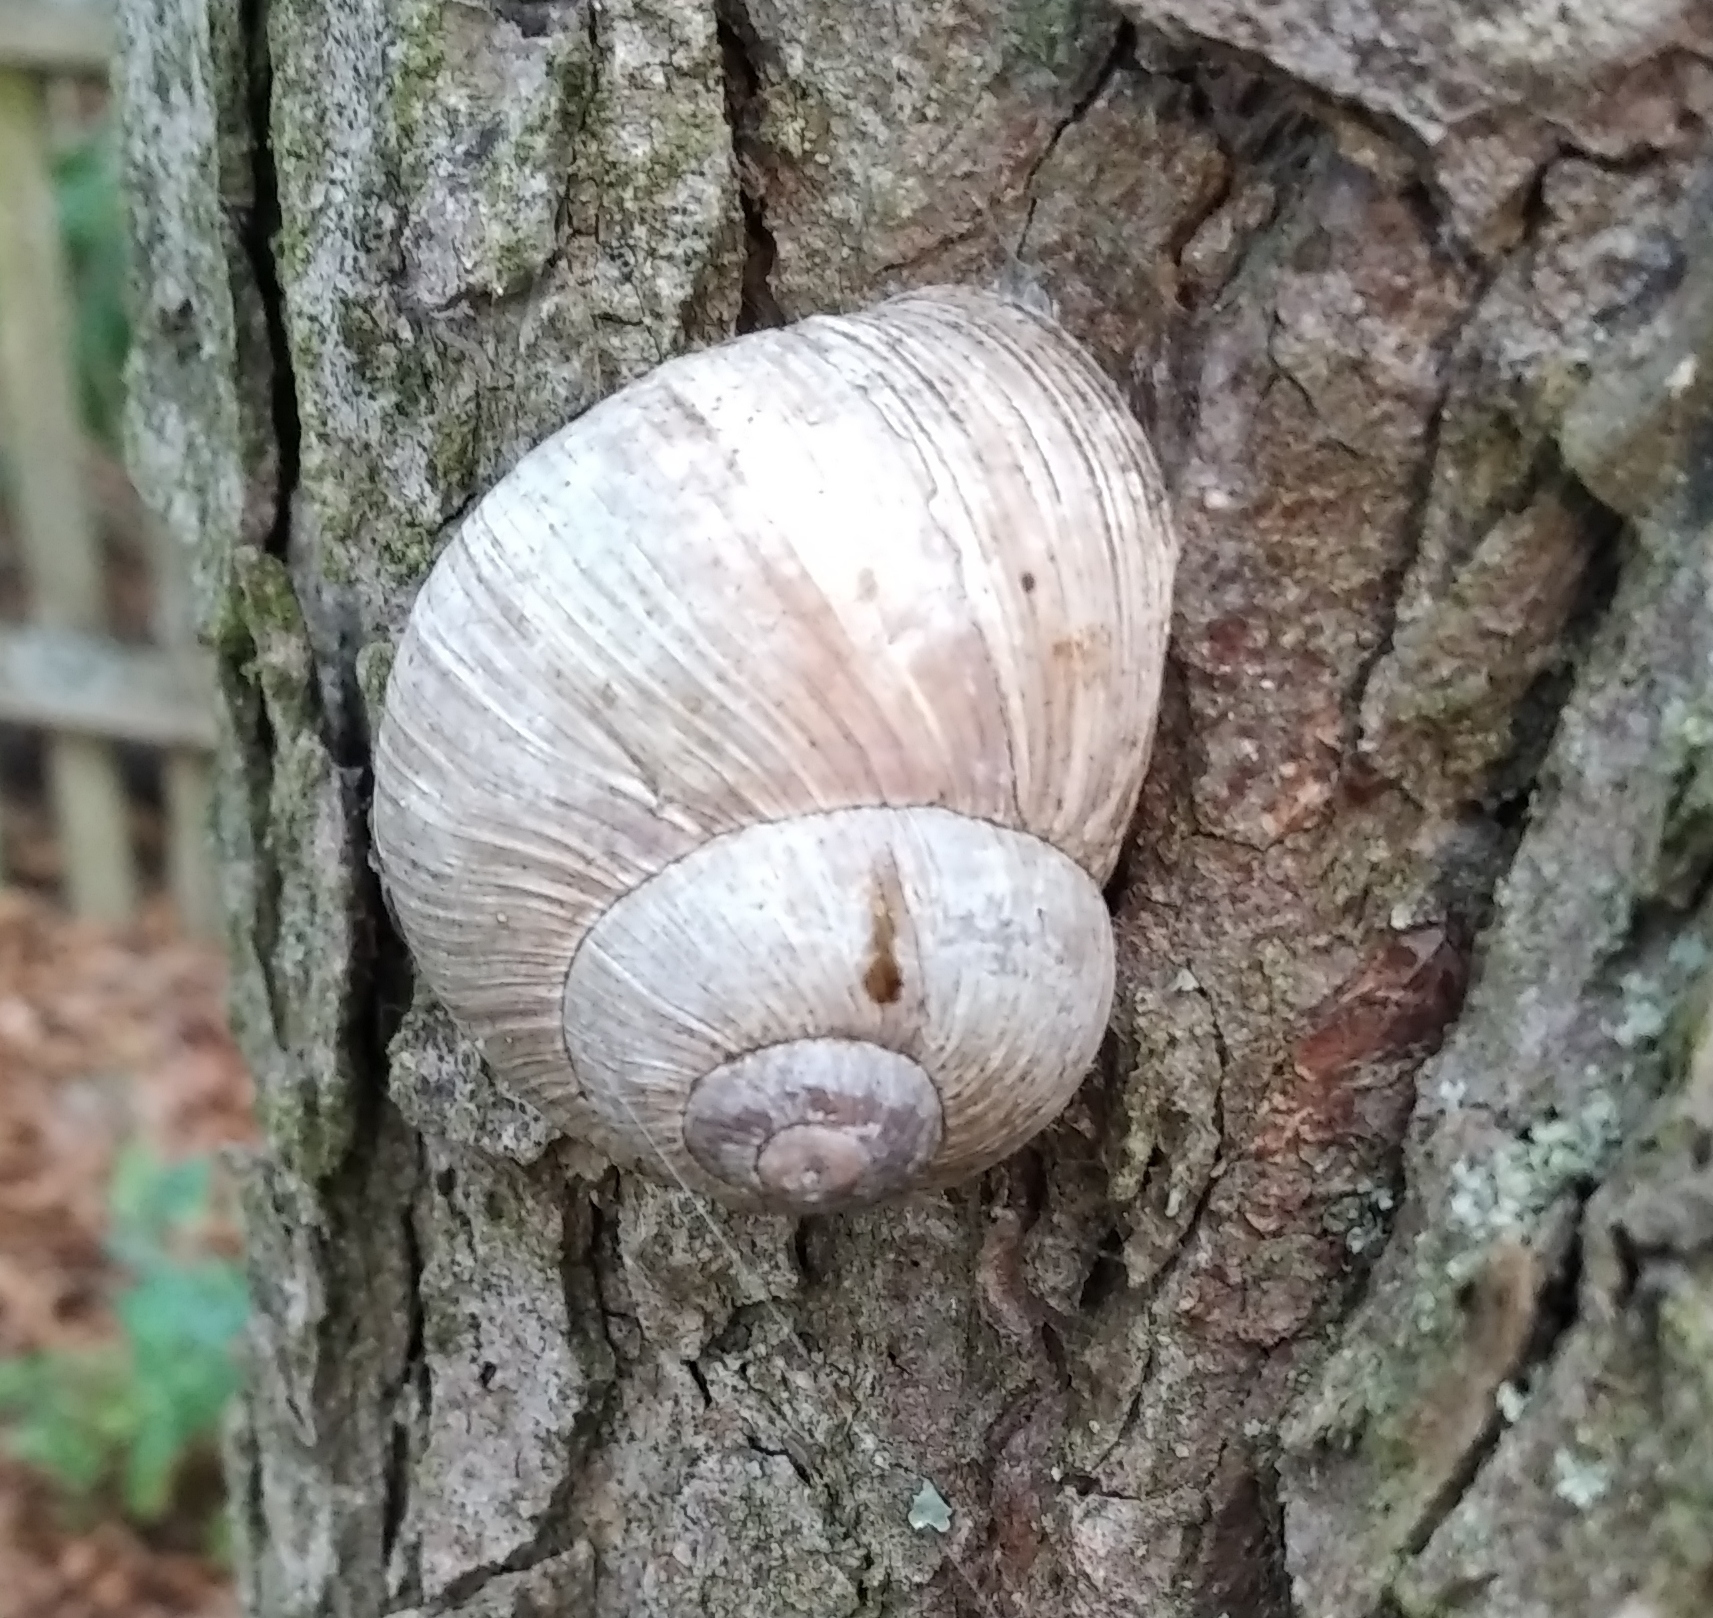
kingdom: Animalia
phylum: Mollusca
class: Gastropoda
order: Stylommatophora
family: Helicidae
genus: Helix
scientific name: Helix pomatia
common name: Roman snail
